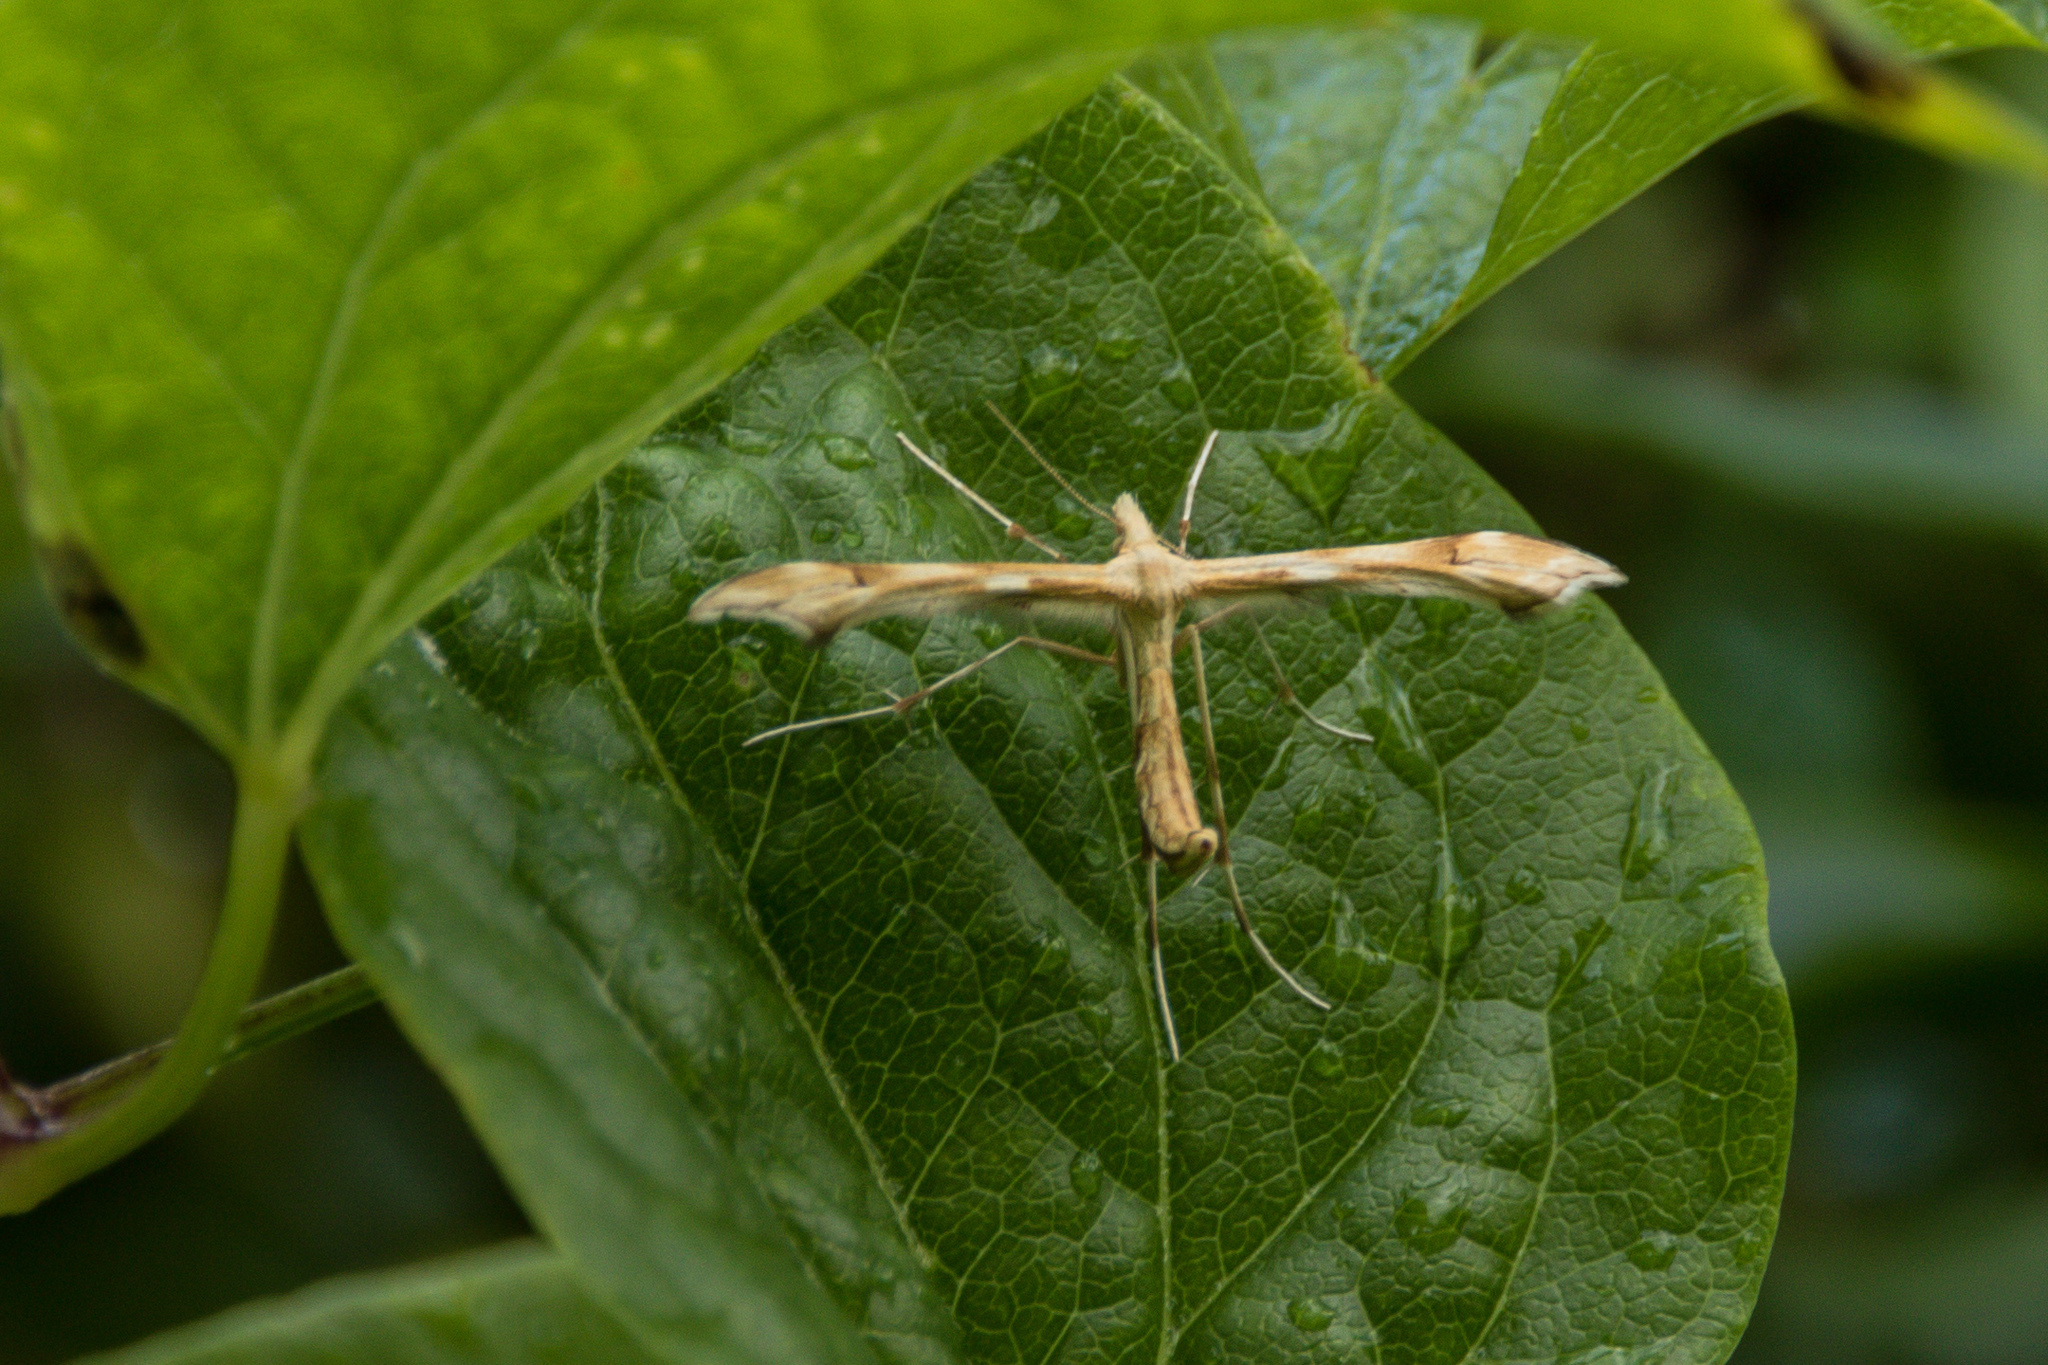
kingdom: Animalia
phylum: Arthropoda
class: Insecta
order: Lepidoptera
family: Pterophoridae
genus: Gillmeria
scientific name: Gillmeria ochrodactyla
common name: Tansy plume
